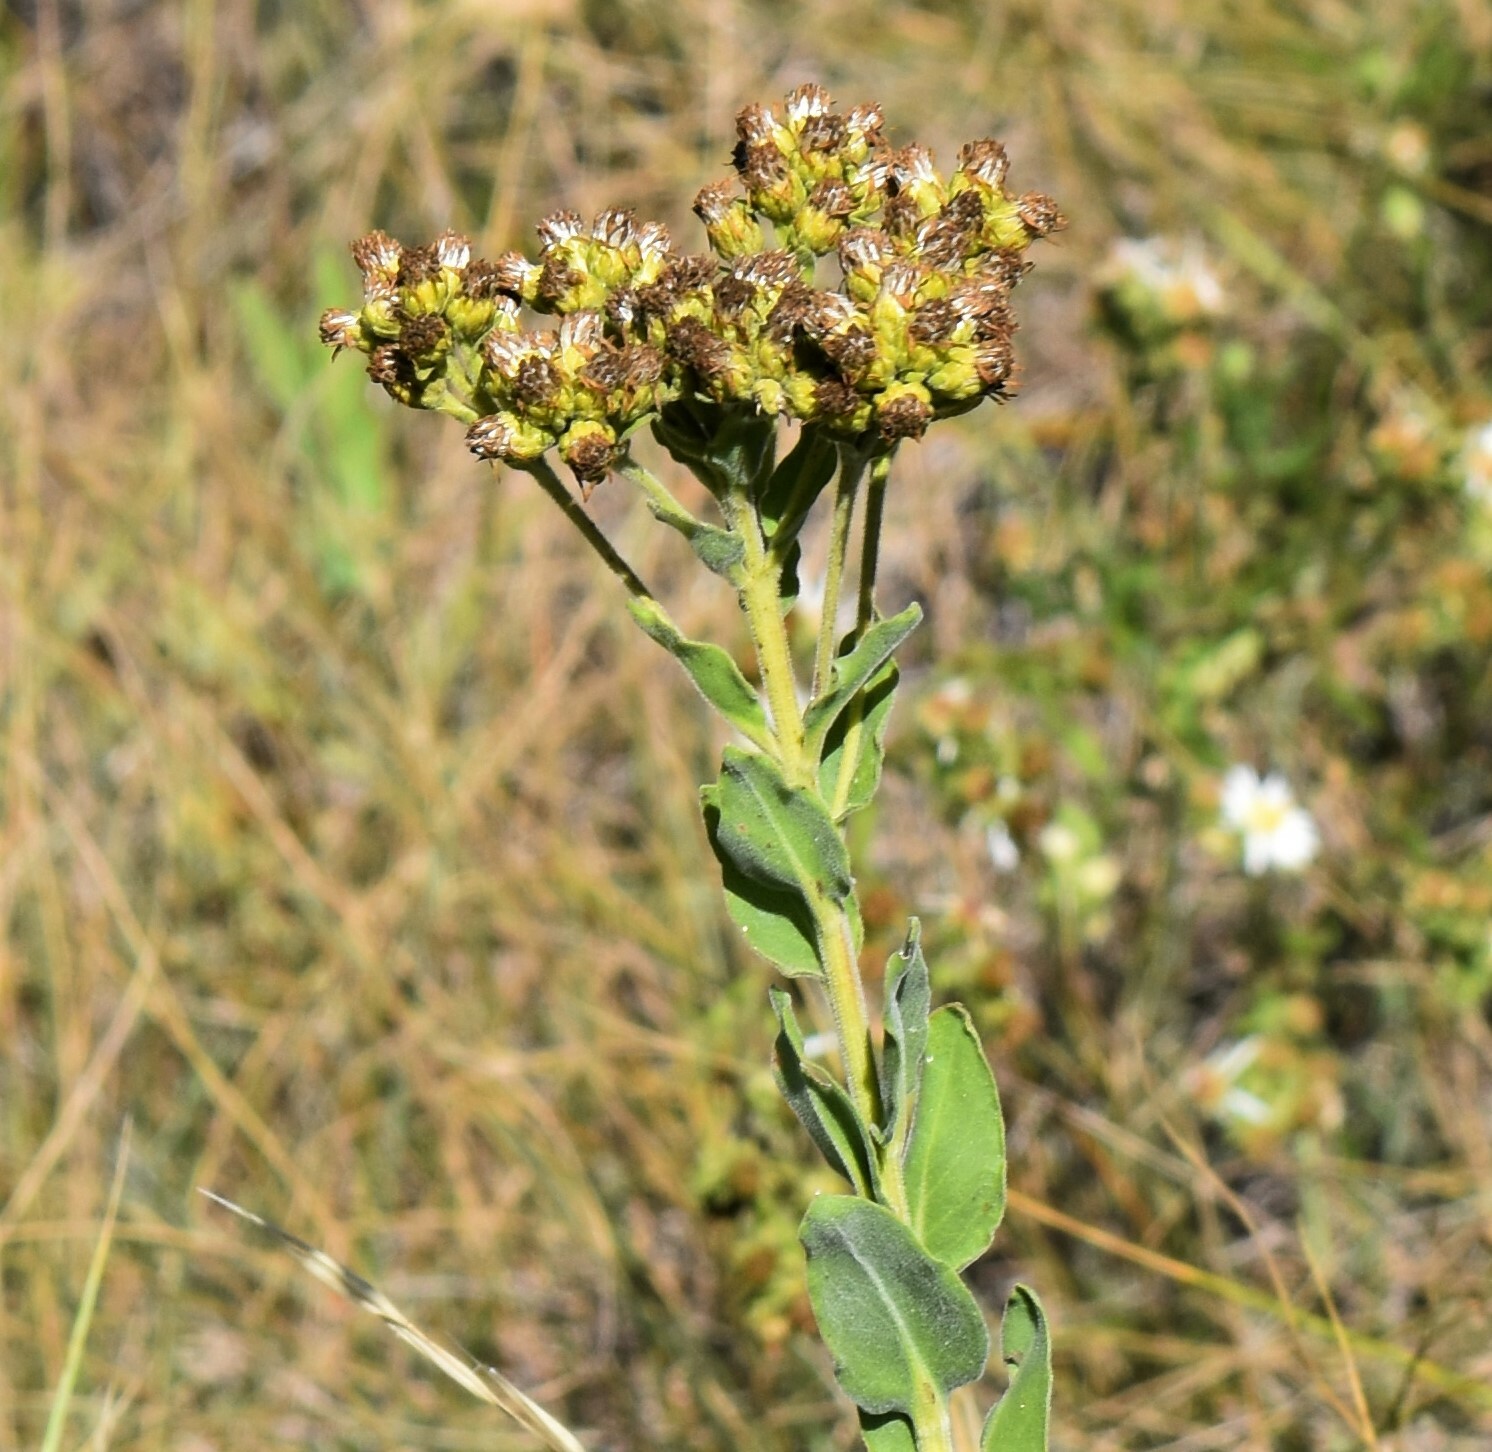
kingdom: Plantae
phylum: Tracheophyta
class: Magnoliopsida
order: Asterales
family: Asteraceae
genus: Solidago
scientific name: Solidago rigida
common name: Rigid goldenrod
